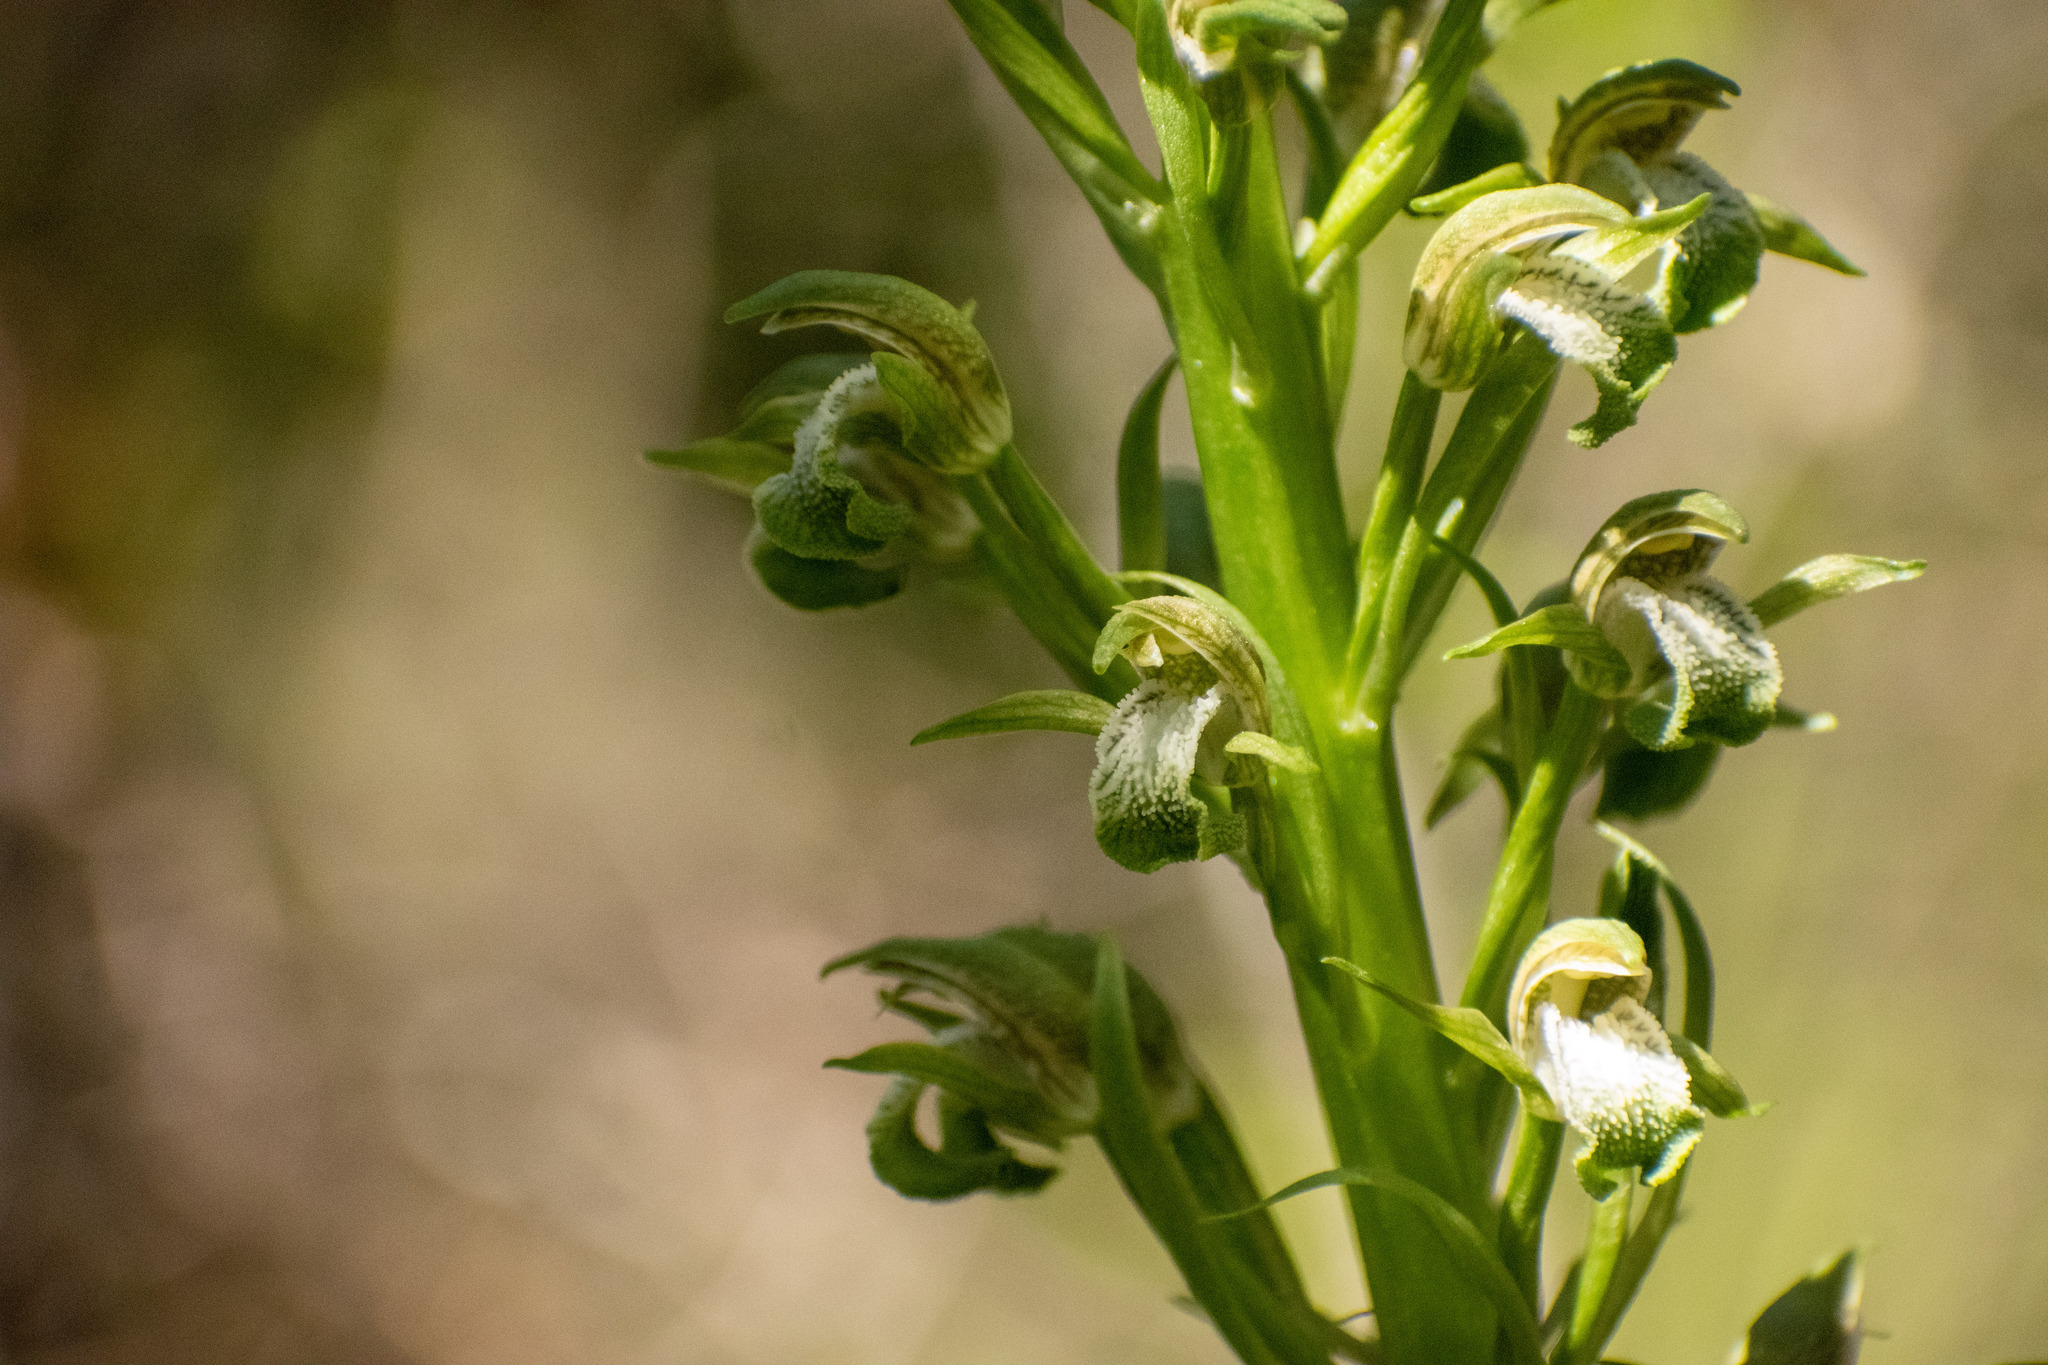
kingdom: Plantae
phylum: Tracheophyta
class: Liliopsida
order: Asparagales
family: Orchidaceae
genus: Chloraea
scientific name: Chloraea cylindrostachya
